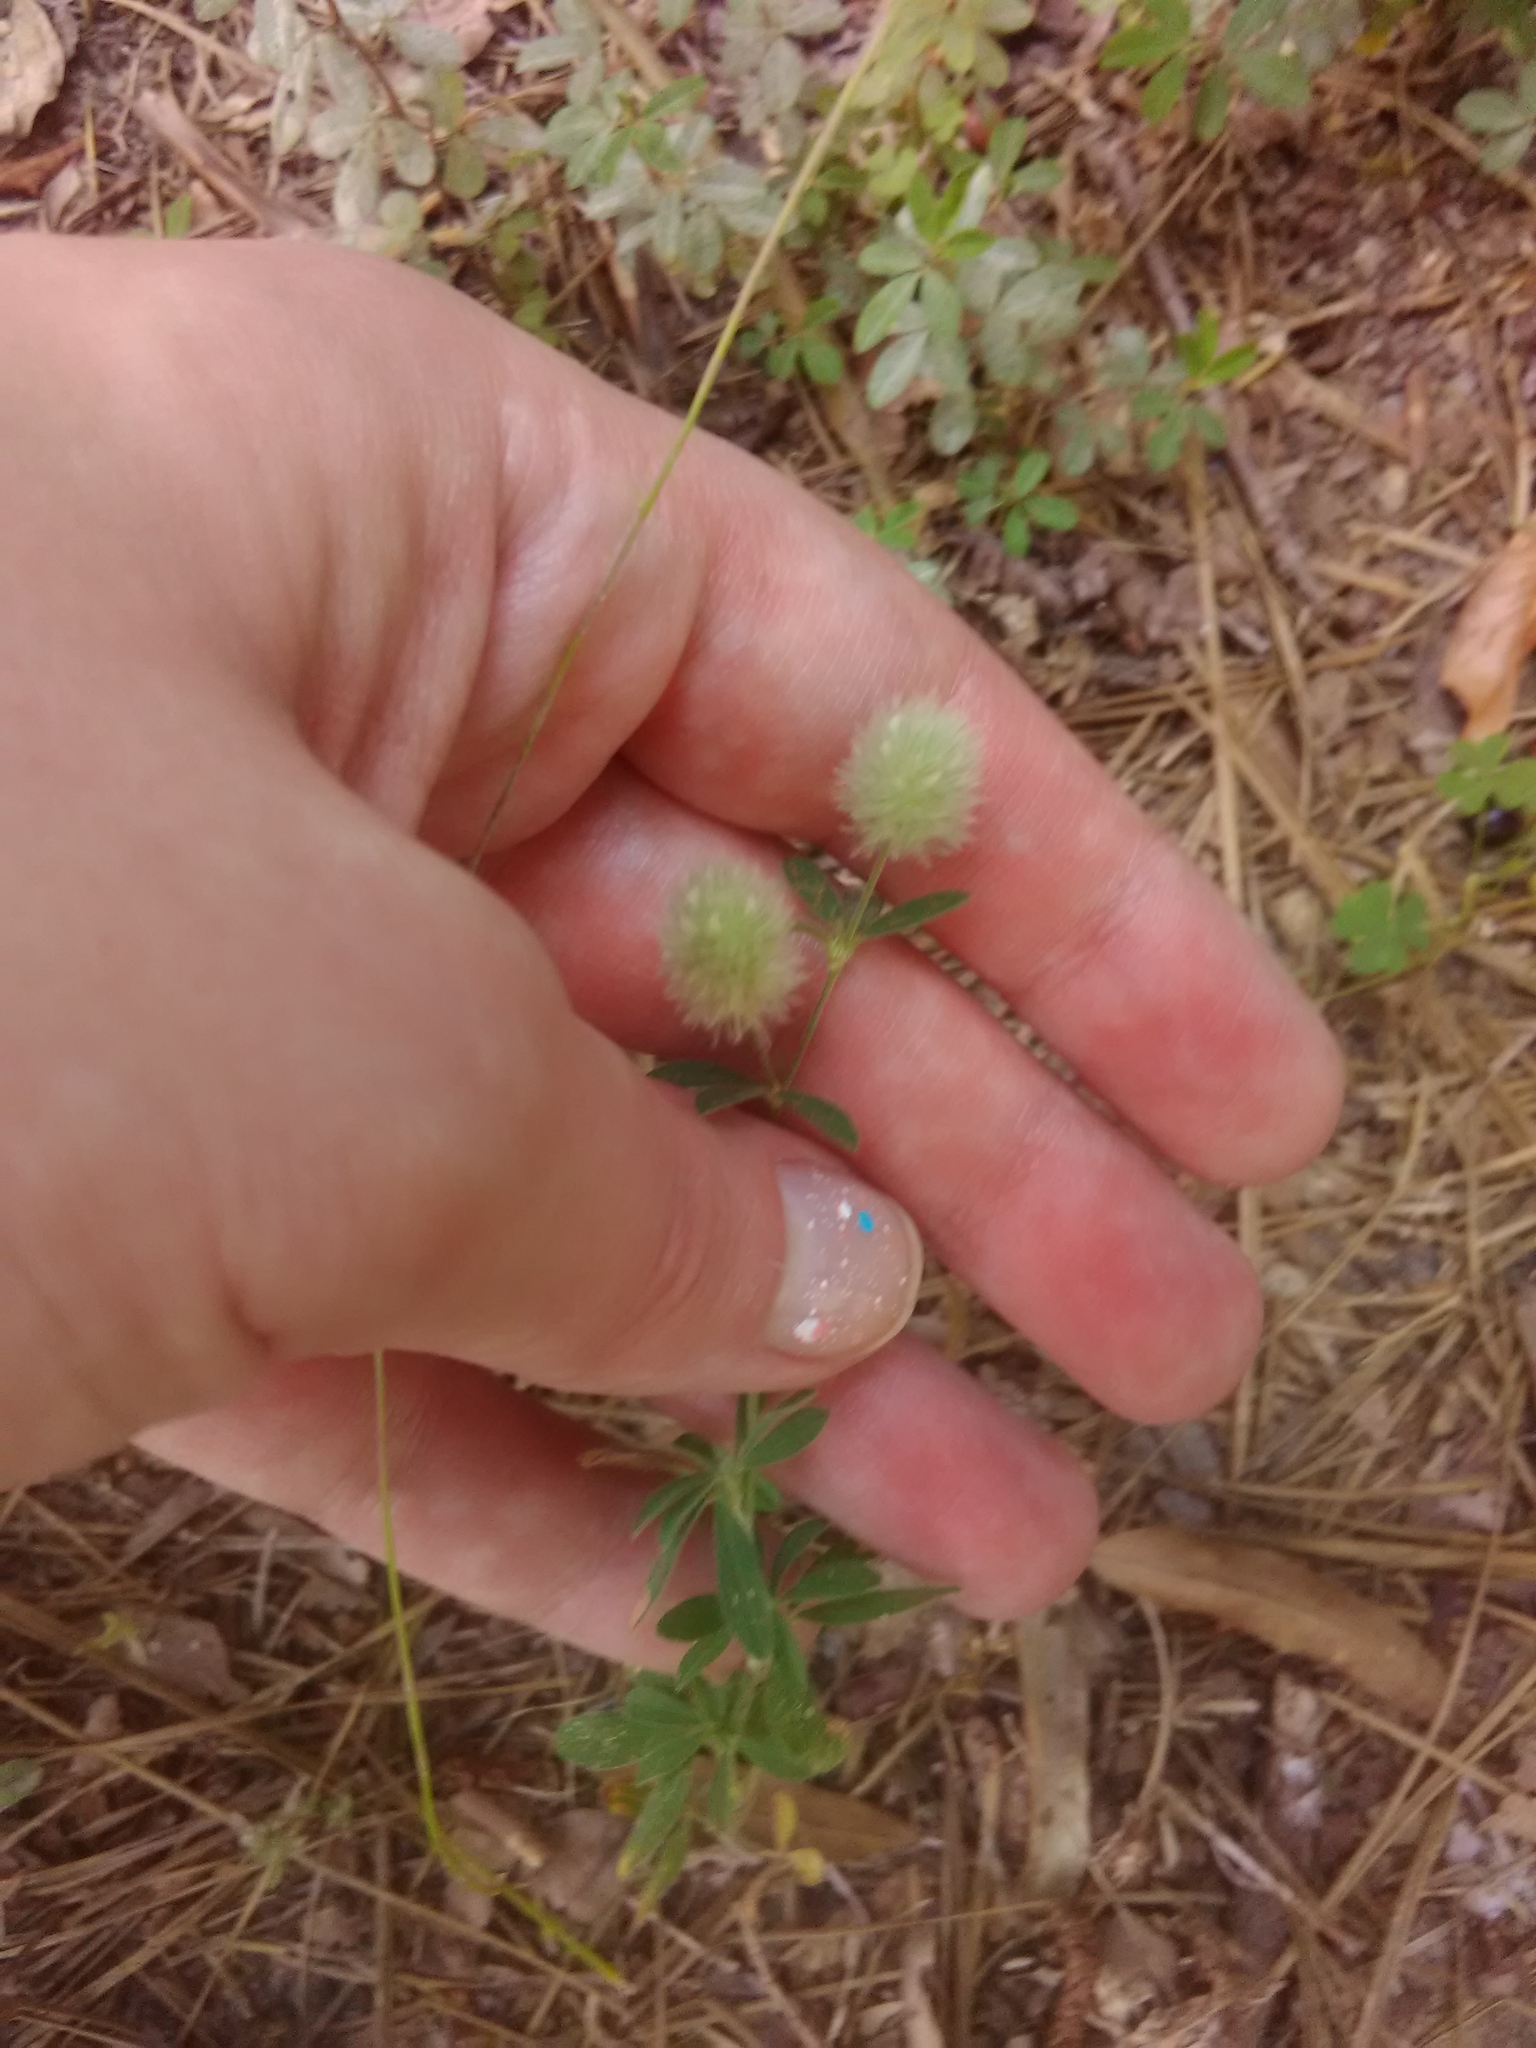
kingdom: Plantae
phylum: Tracheophyta
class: Magnoliopsida
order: Fabales
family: Fabaceae
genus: Trifolium
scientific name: Trifolium arvense
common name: Hare's-foot clover
